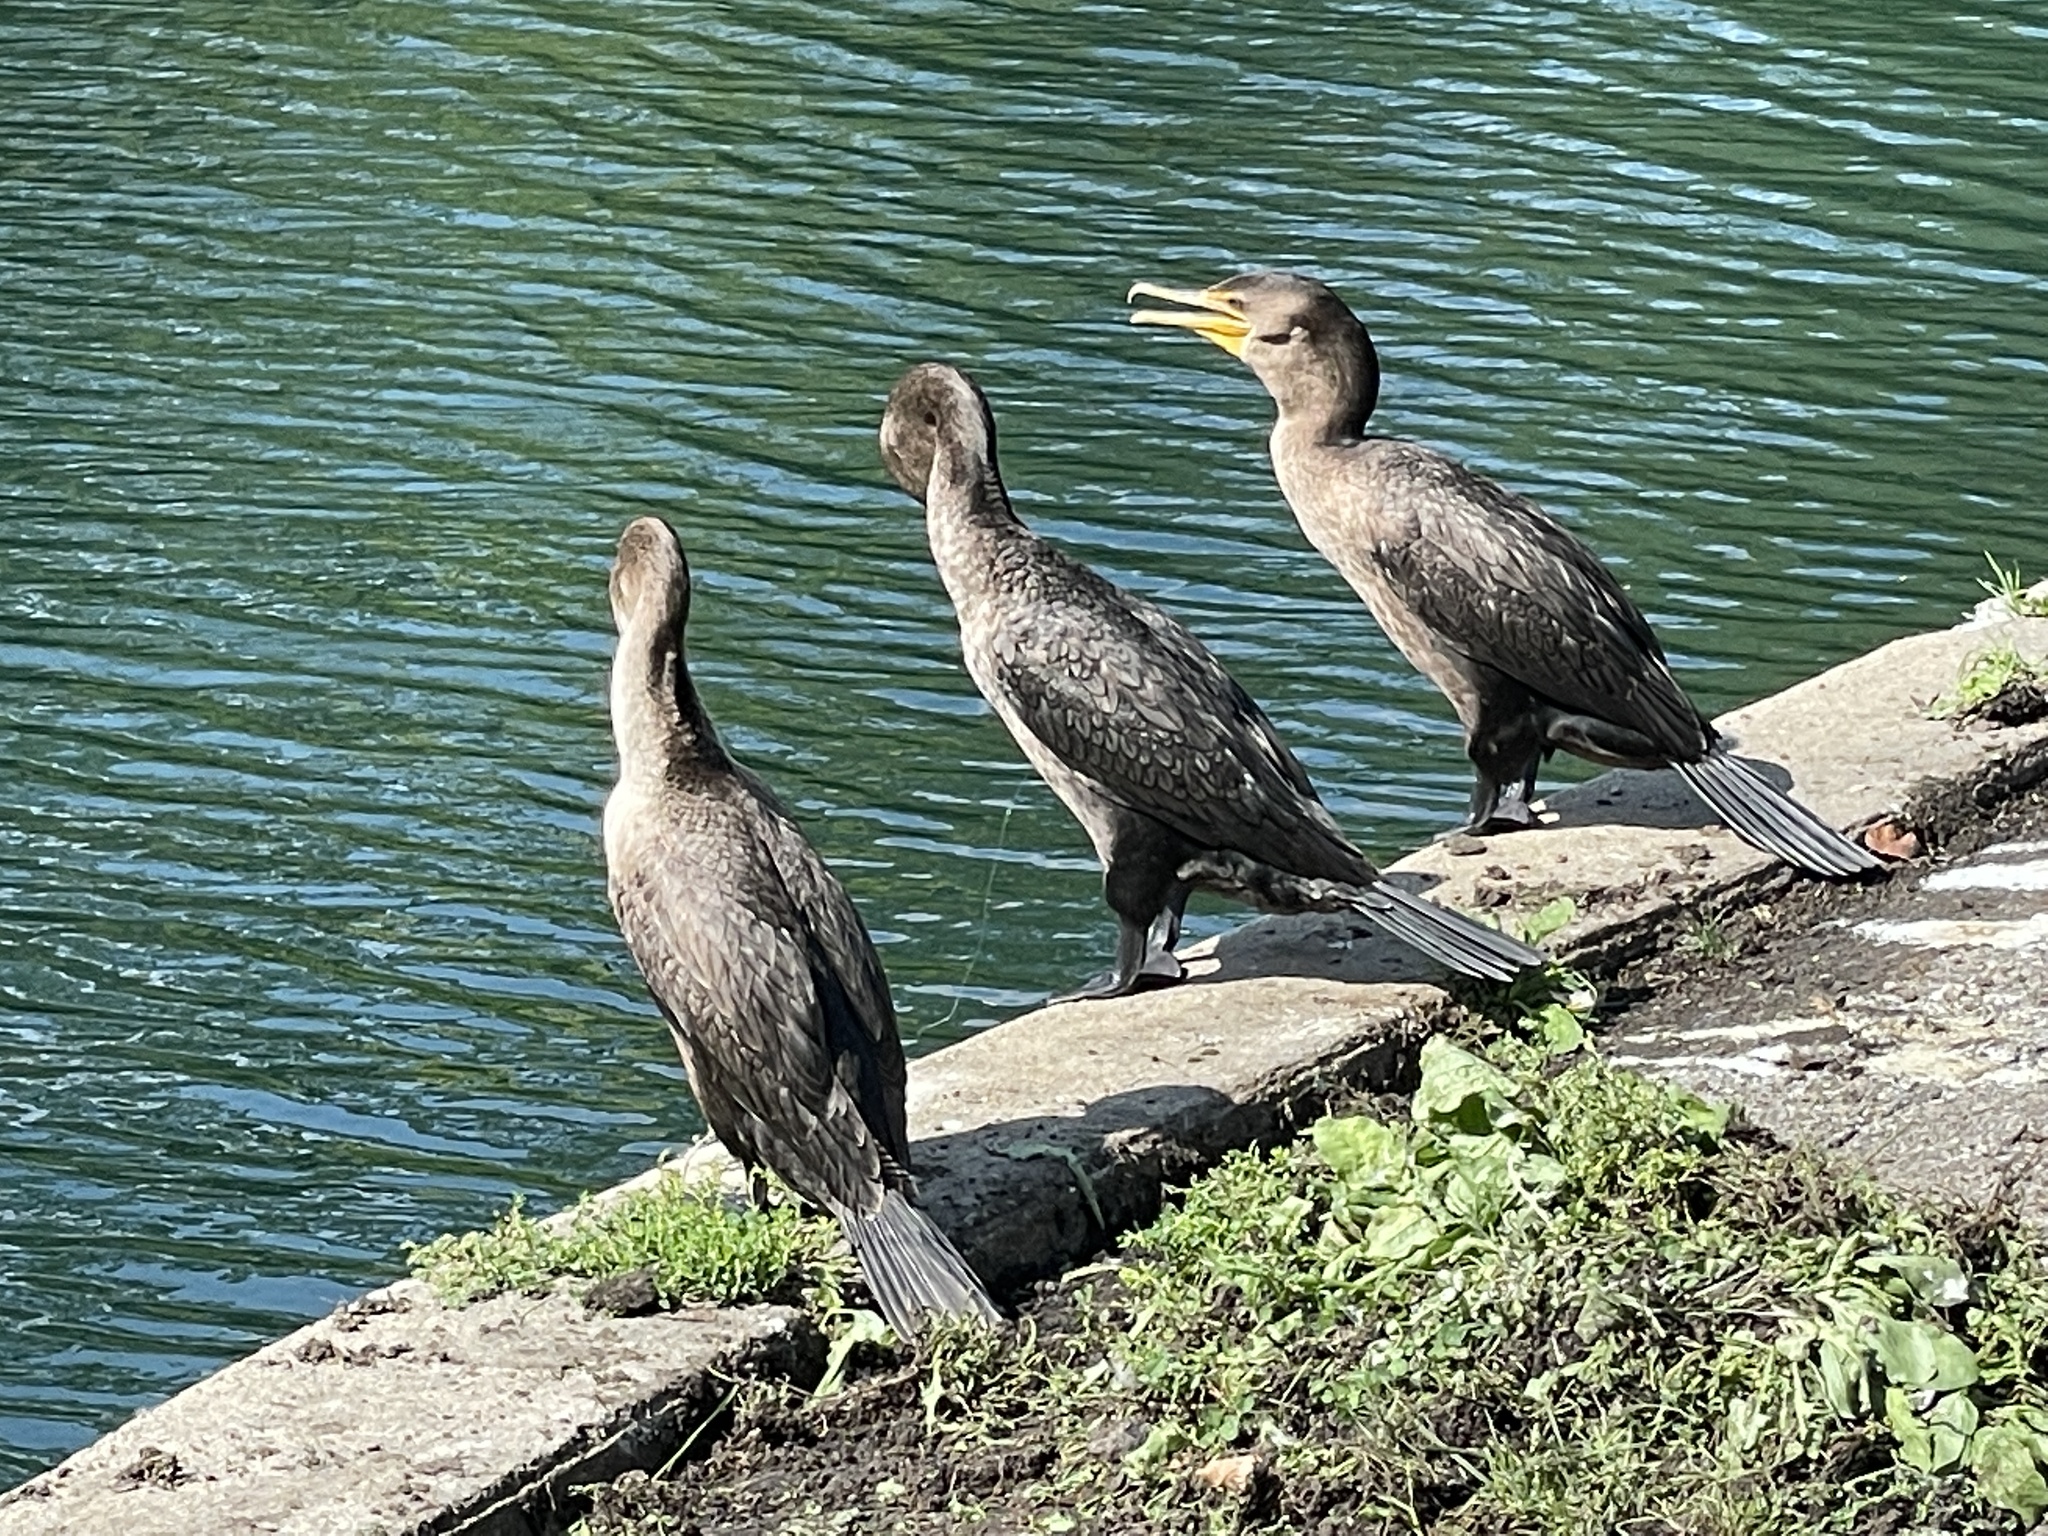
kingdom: Animalia
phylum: Chordata
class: Aves
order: Suliformes
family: Phalacrocoracidae
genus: Phalacrocorax
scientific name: Phalacrocorax auritus
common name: Double-crested cormorant
